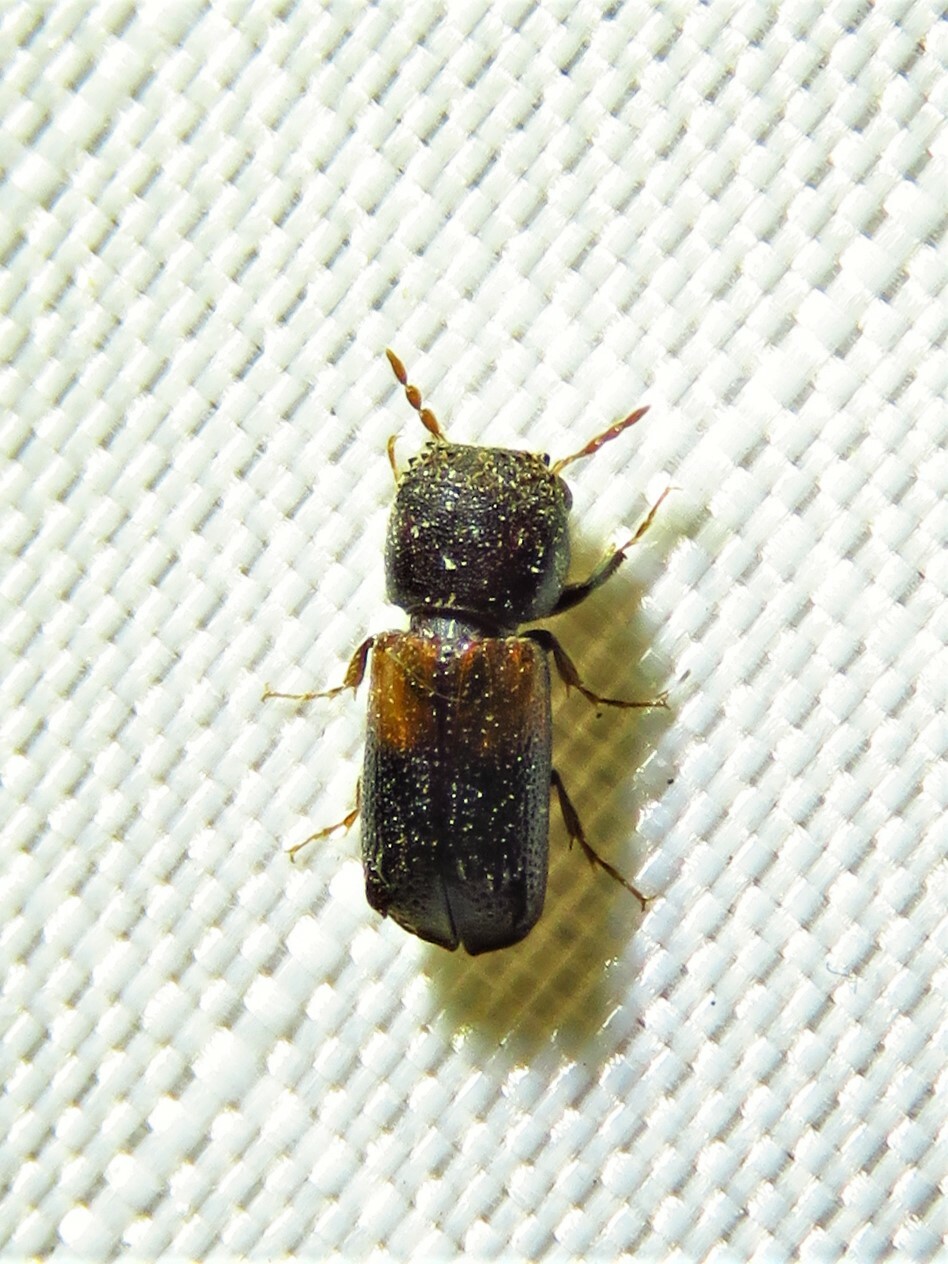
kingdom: Animalia
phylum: Arthropoda
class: Insecta
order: Coleoptera
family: Bostrichidae
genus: Xylobiops
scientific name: Xylobiops basilaris
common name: Red-shouldered bostrichid
